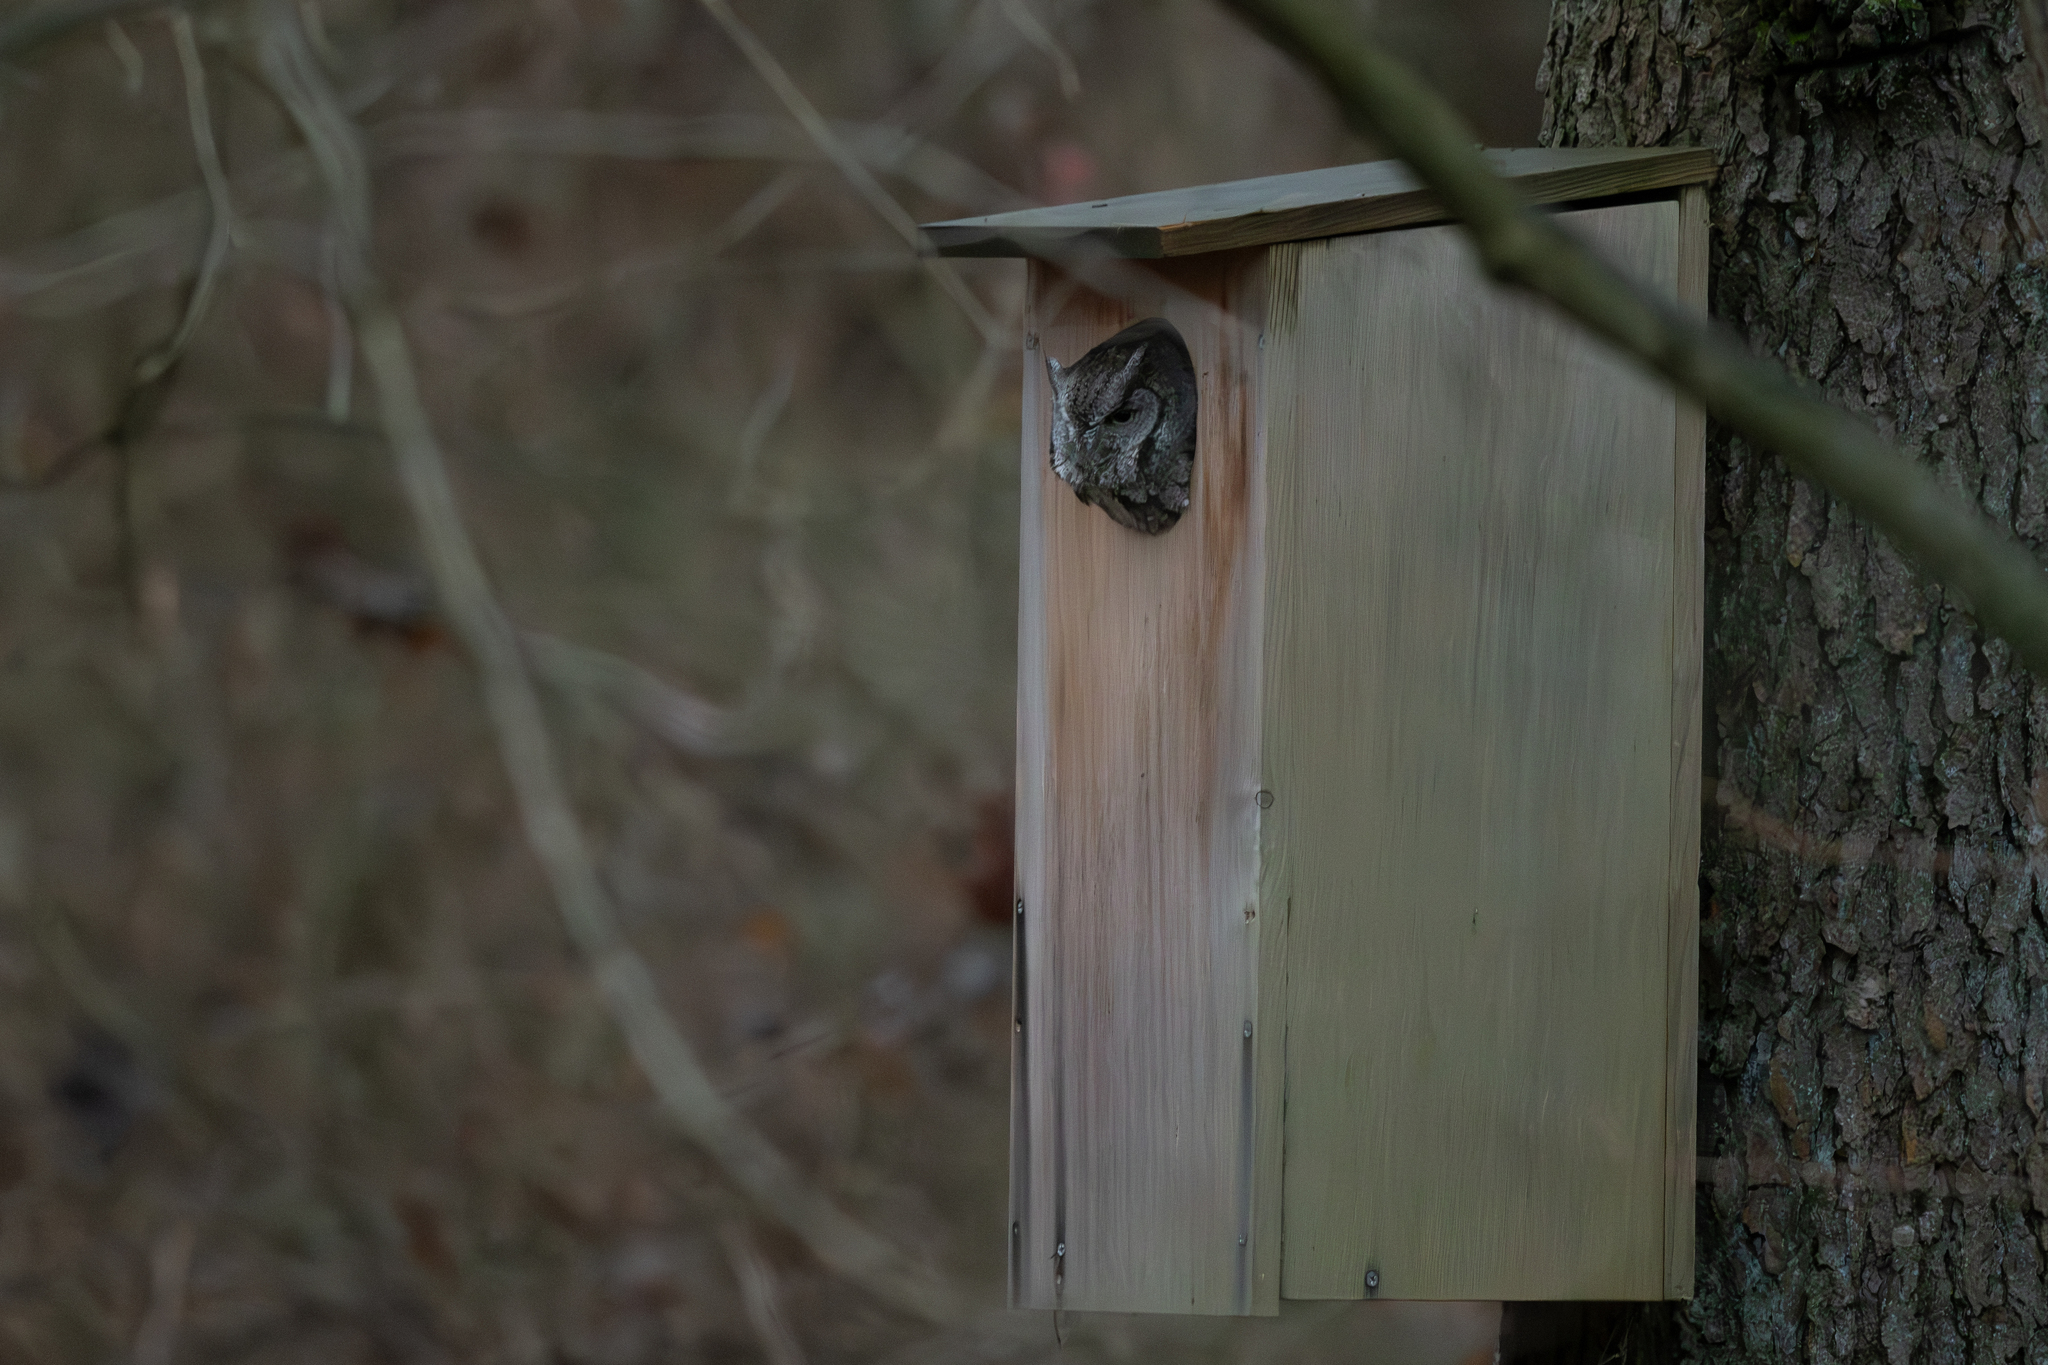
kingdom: Animalia
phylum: Chordata
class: Aves
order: Strigiformes
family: Strigidae
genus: Megascops
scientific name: Megascops asio
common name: Eastern screech-owl
